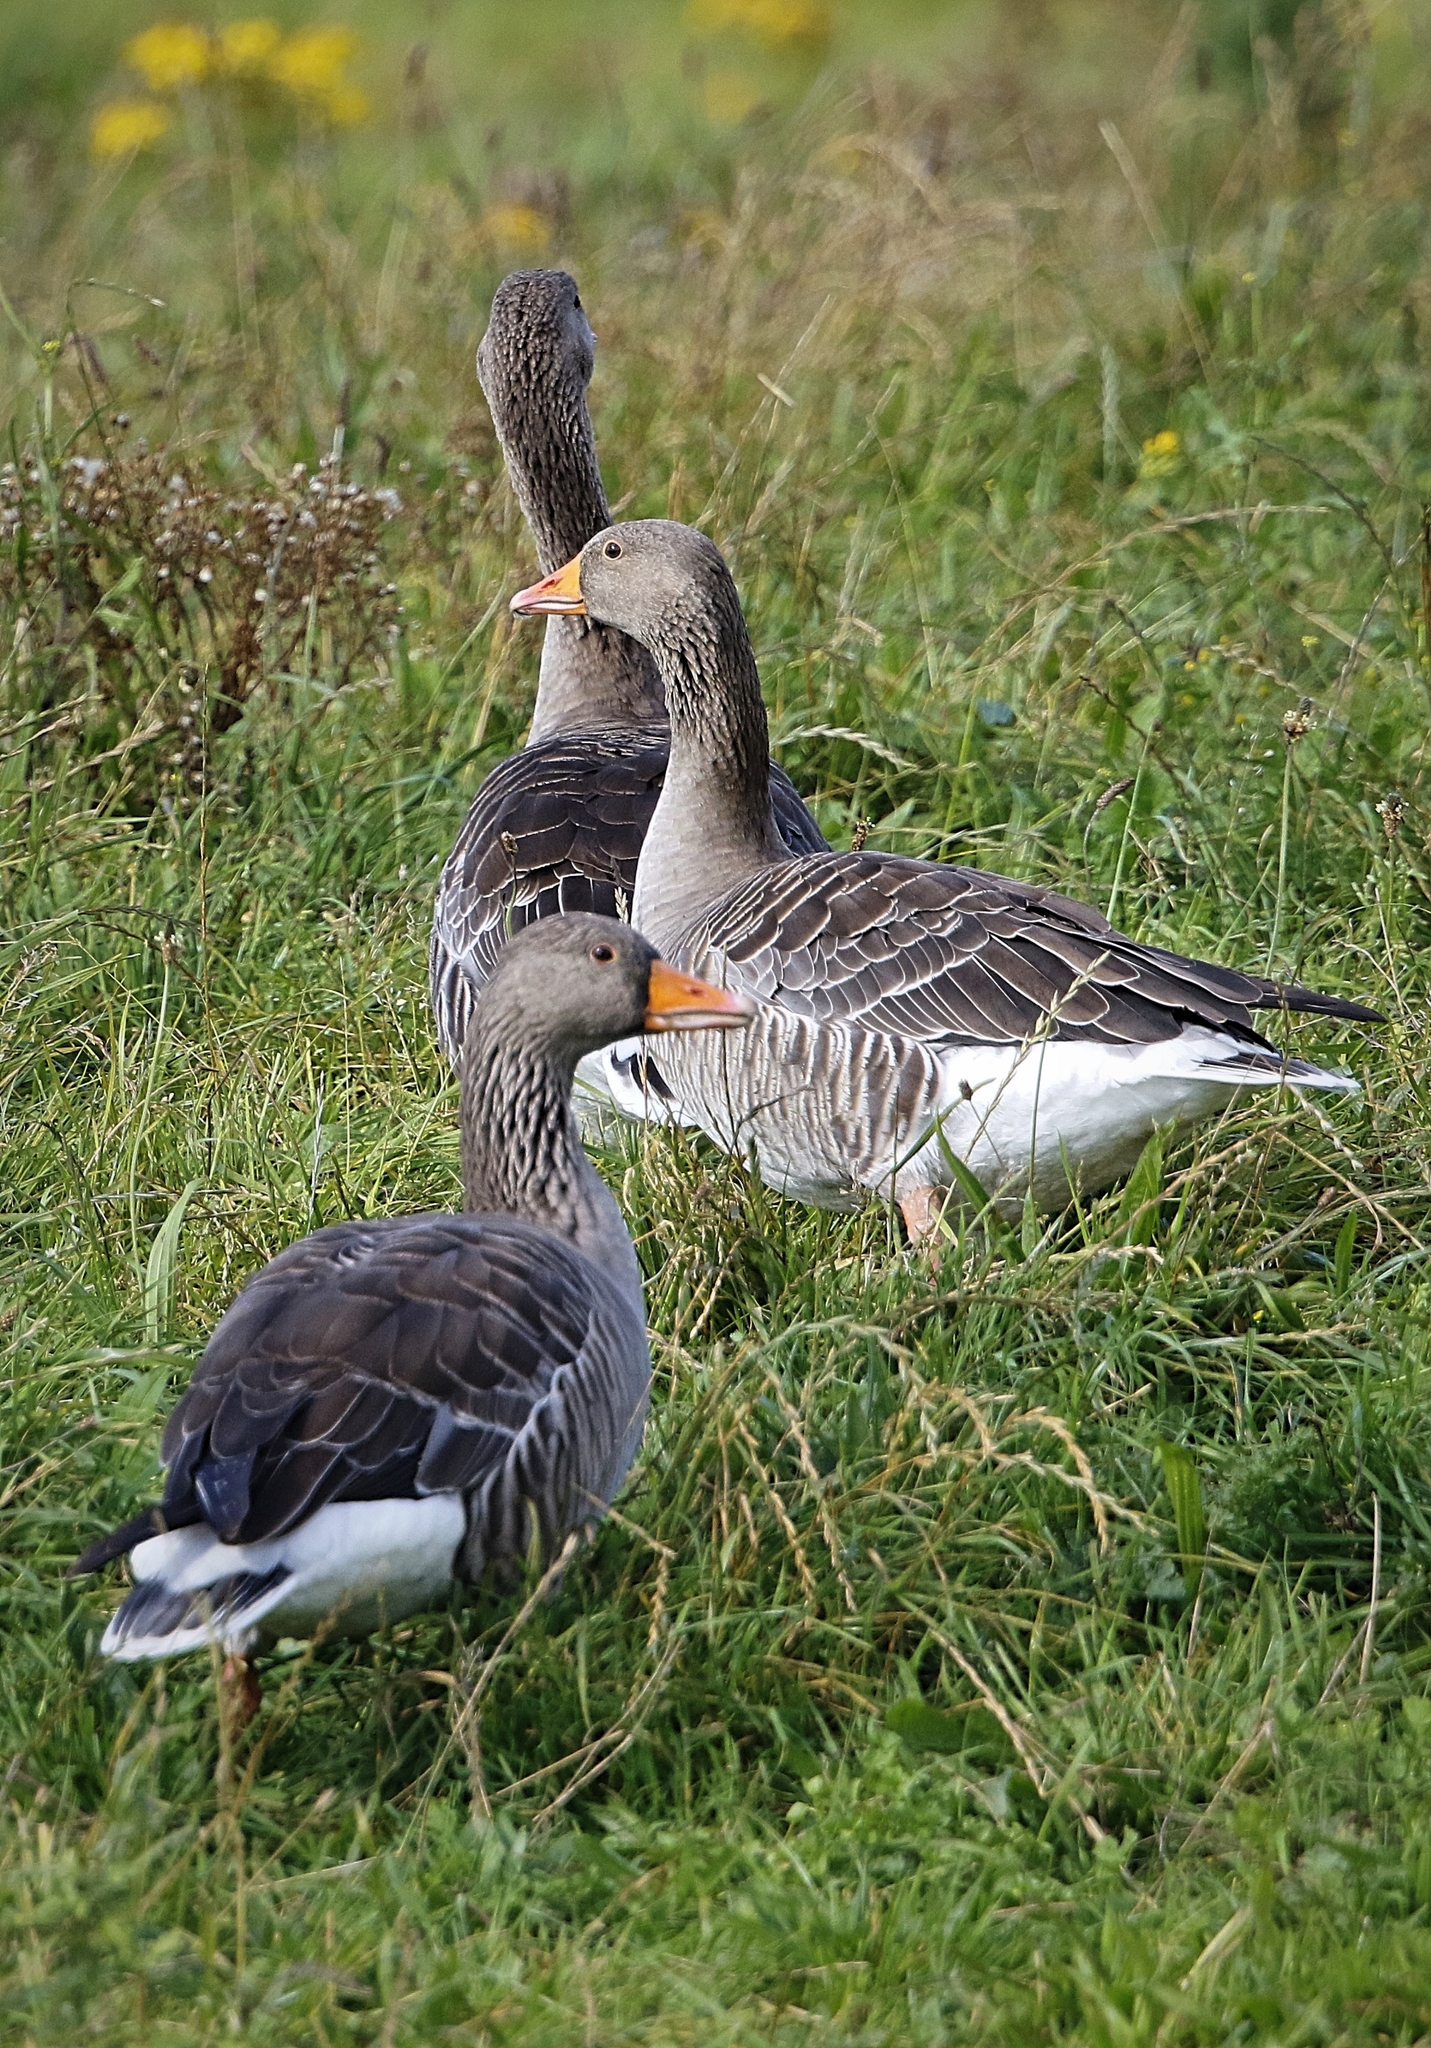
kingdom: Animalia
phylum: Chordata
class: Aves
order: Anseriformes
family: Anatidae
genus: Anser
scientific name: Anser anser
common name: Greylag goose
